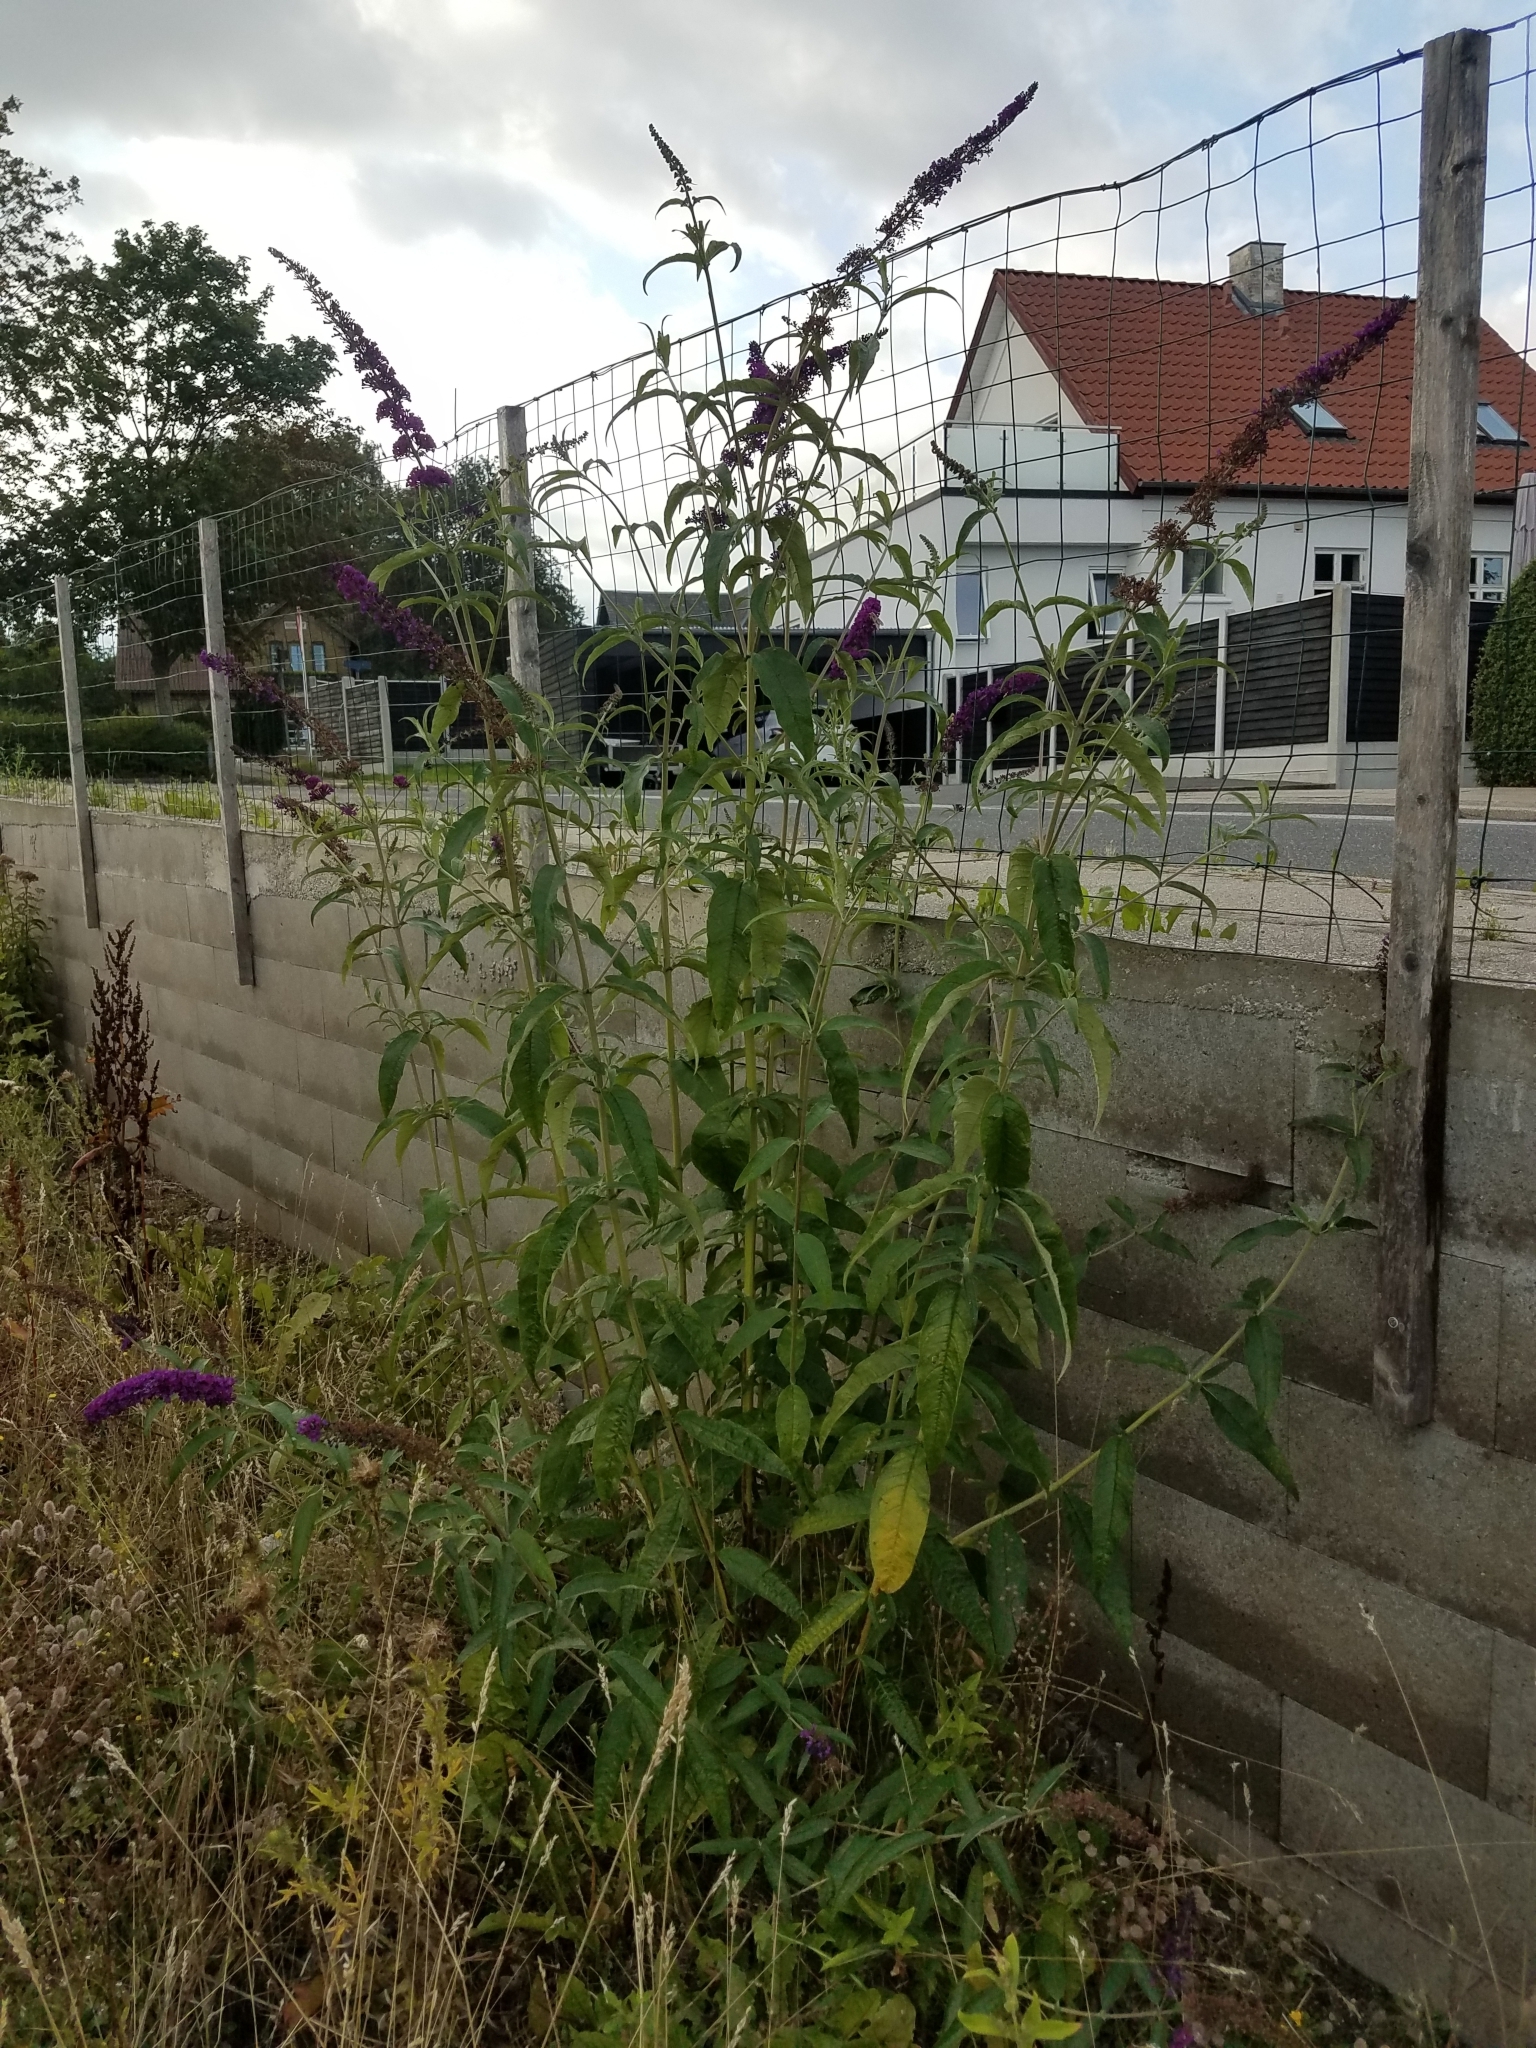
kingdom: Plantae
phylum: Tracheophyta
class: Magnoliopsida
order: Lamiales
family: Scrophulariaceae
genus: Buddleja
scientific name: Buddleja davidii
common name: Butterfly-bush
